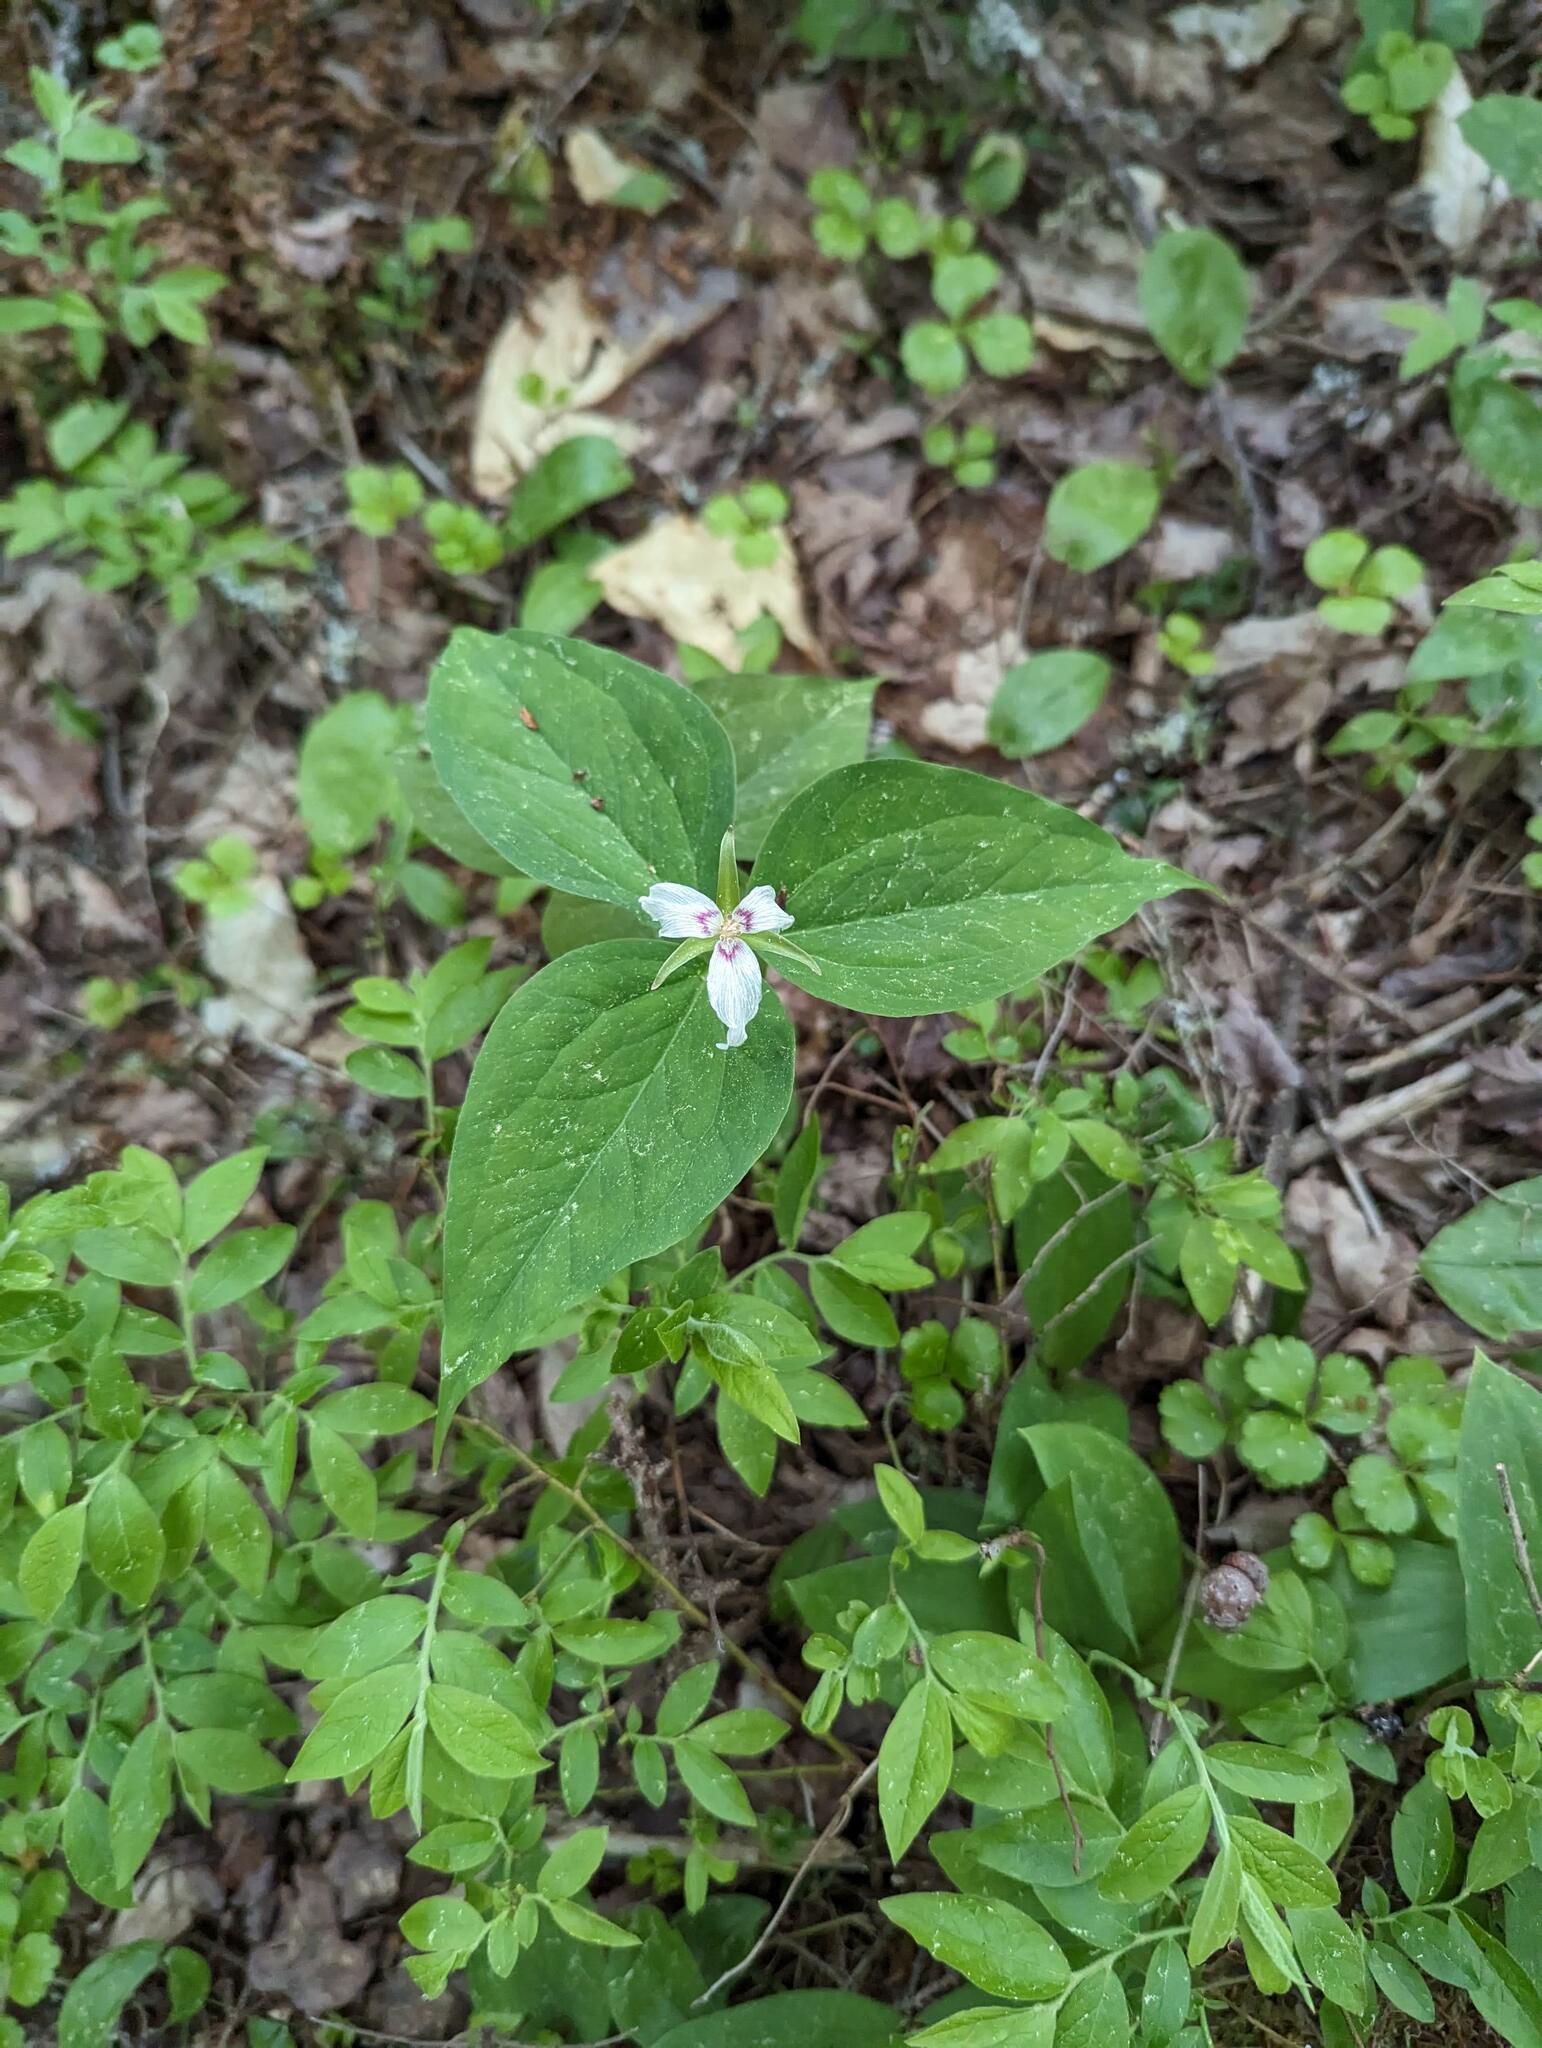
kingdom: Plantae
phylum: Tracheophyta
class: Liliopsida
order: Liliales
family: Melanthiaceae
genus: Trillium
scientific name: Trillium undulatum
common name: Paint trillium
